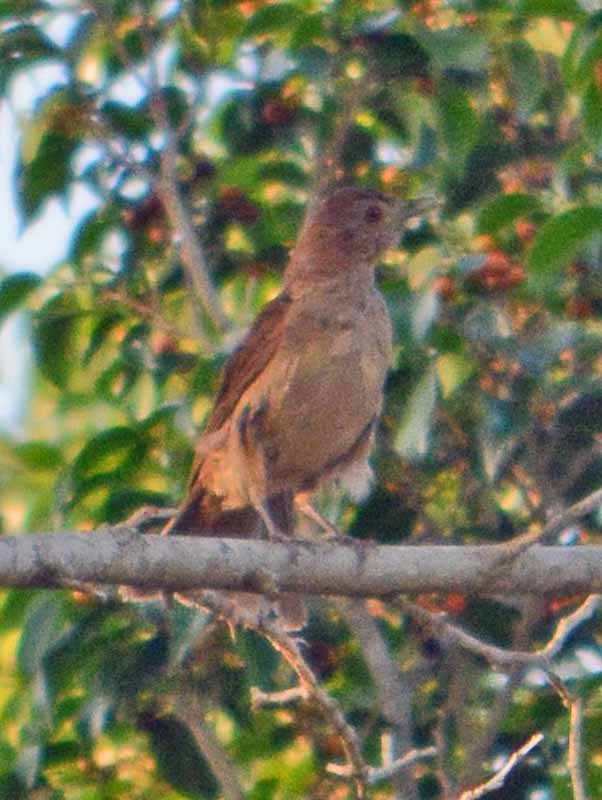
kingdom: Animalia
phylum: Chordata
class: Aves
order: Passeriformes
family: Turdidae
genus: Turdus
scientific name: Turdus grayi
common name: Clay-colored thrush
